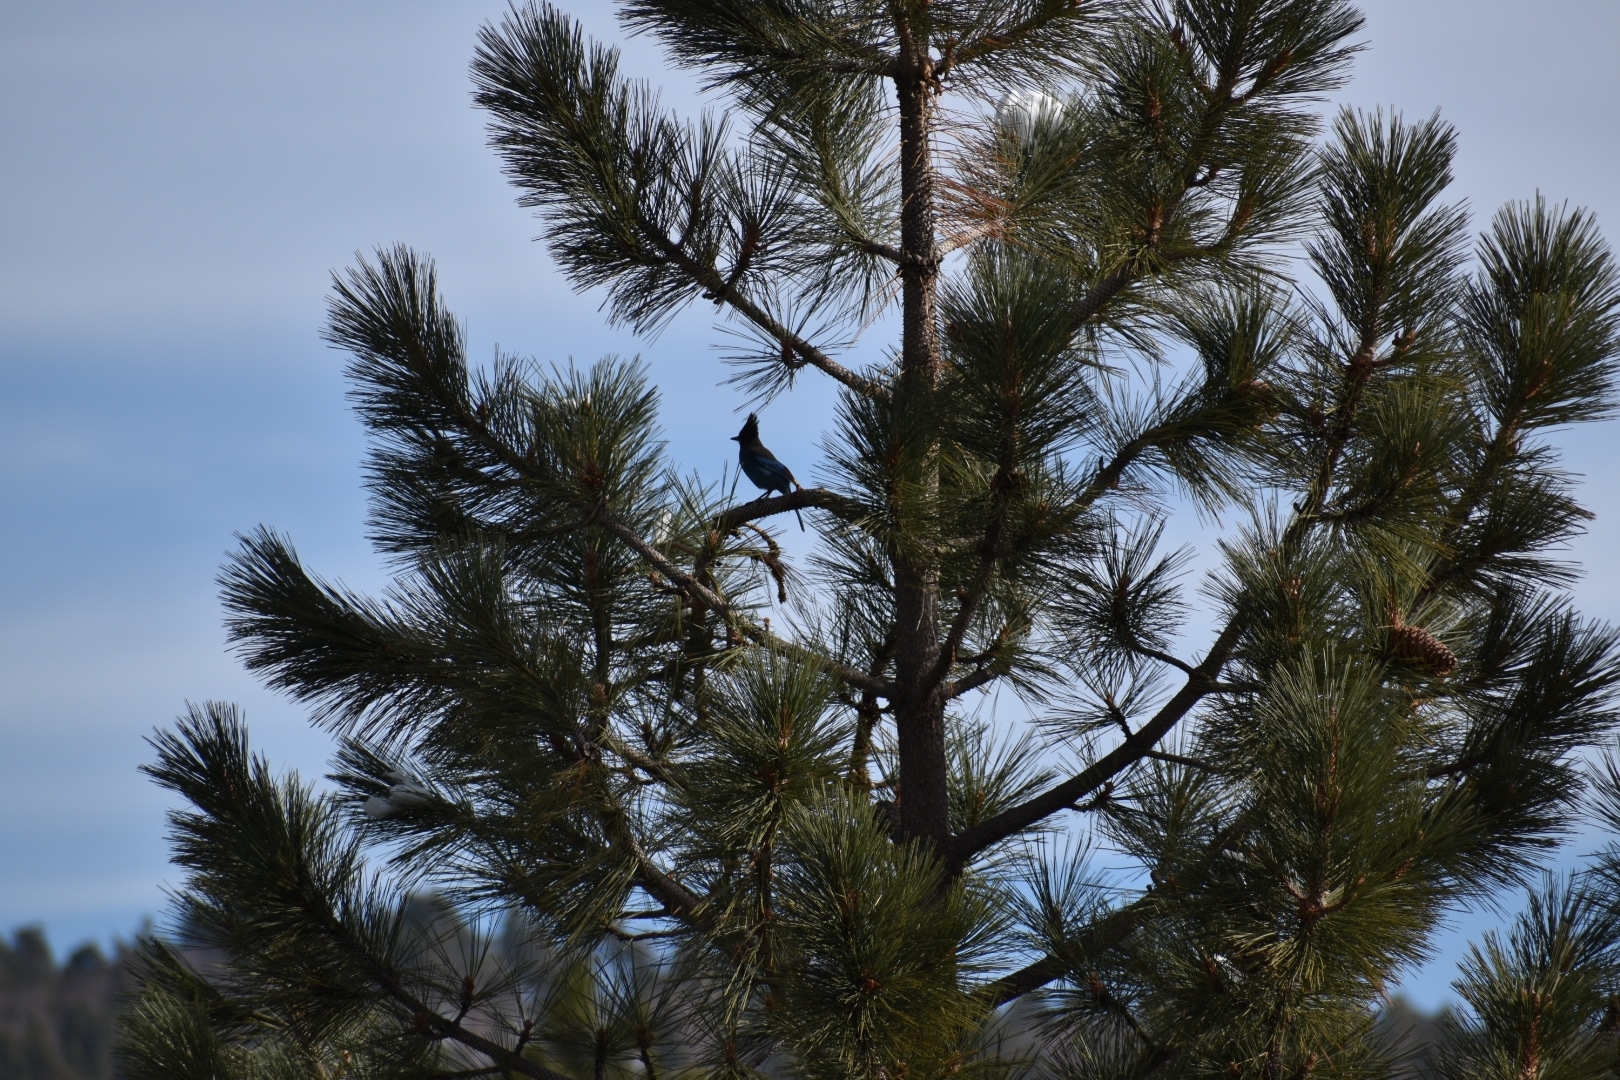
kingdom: Animalia
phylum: Chordata
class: Aves
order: Passeriformes
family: Corvidae
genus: Cyanocitta
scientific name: Cyanocitta stelleri
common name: Steller's jay
